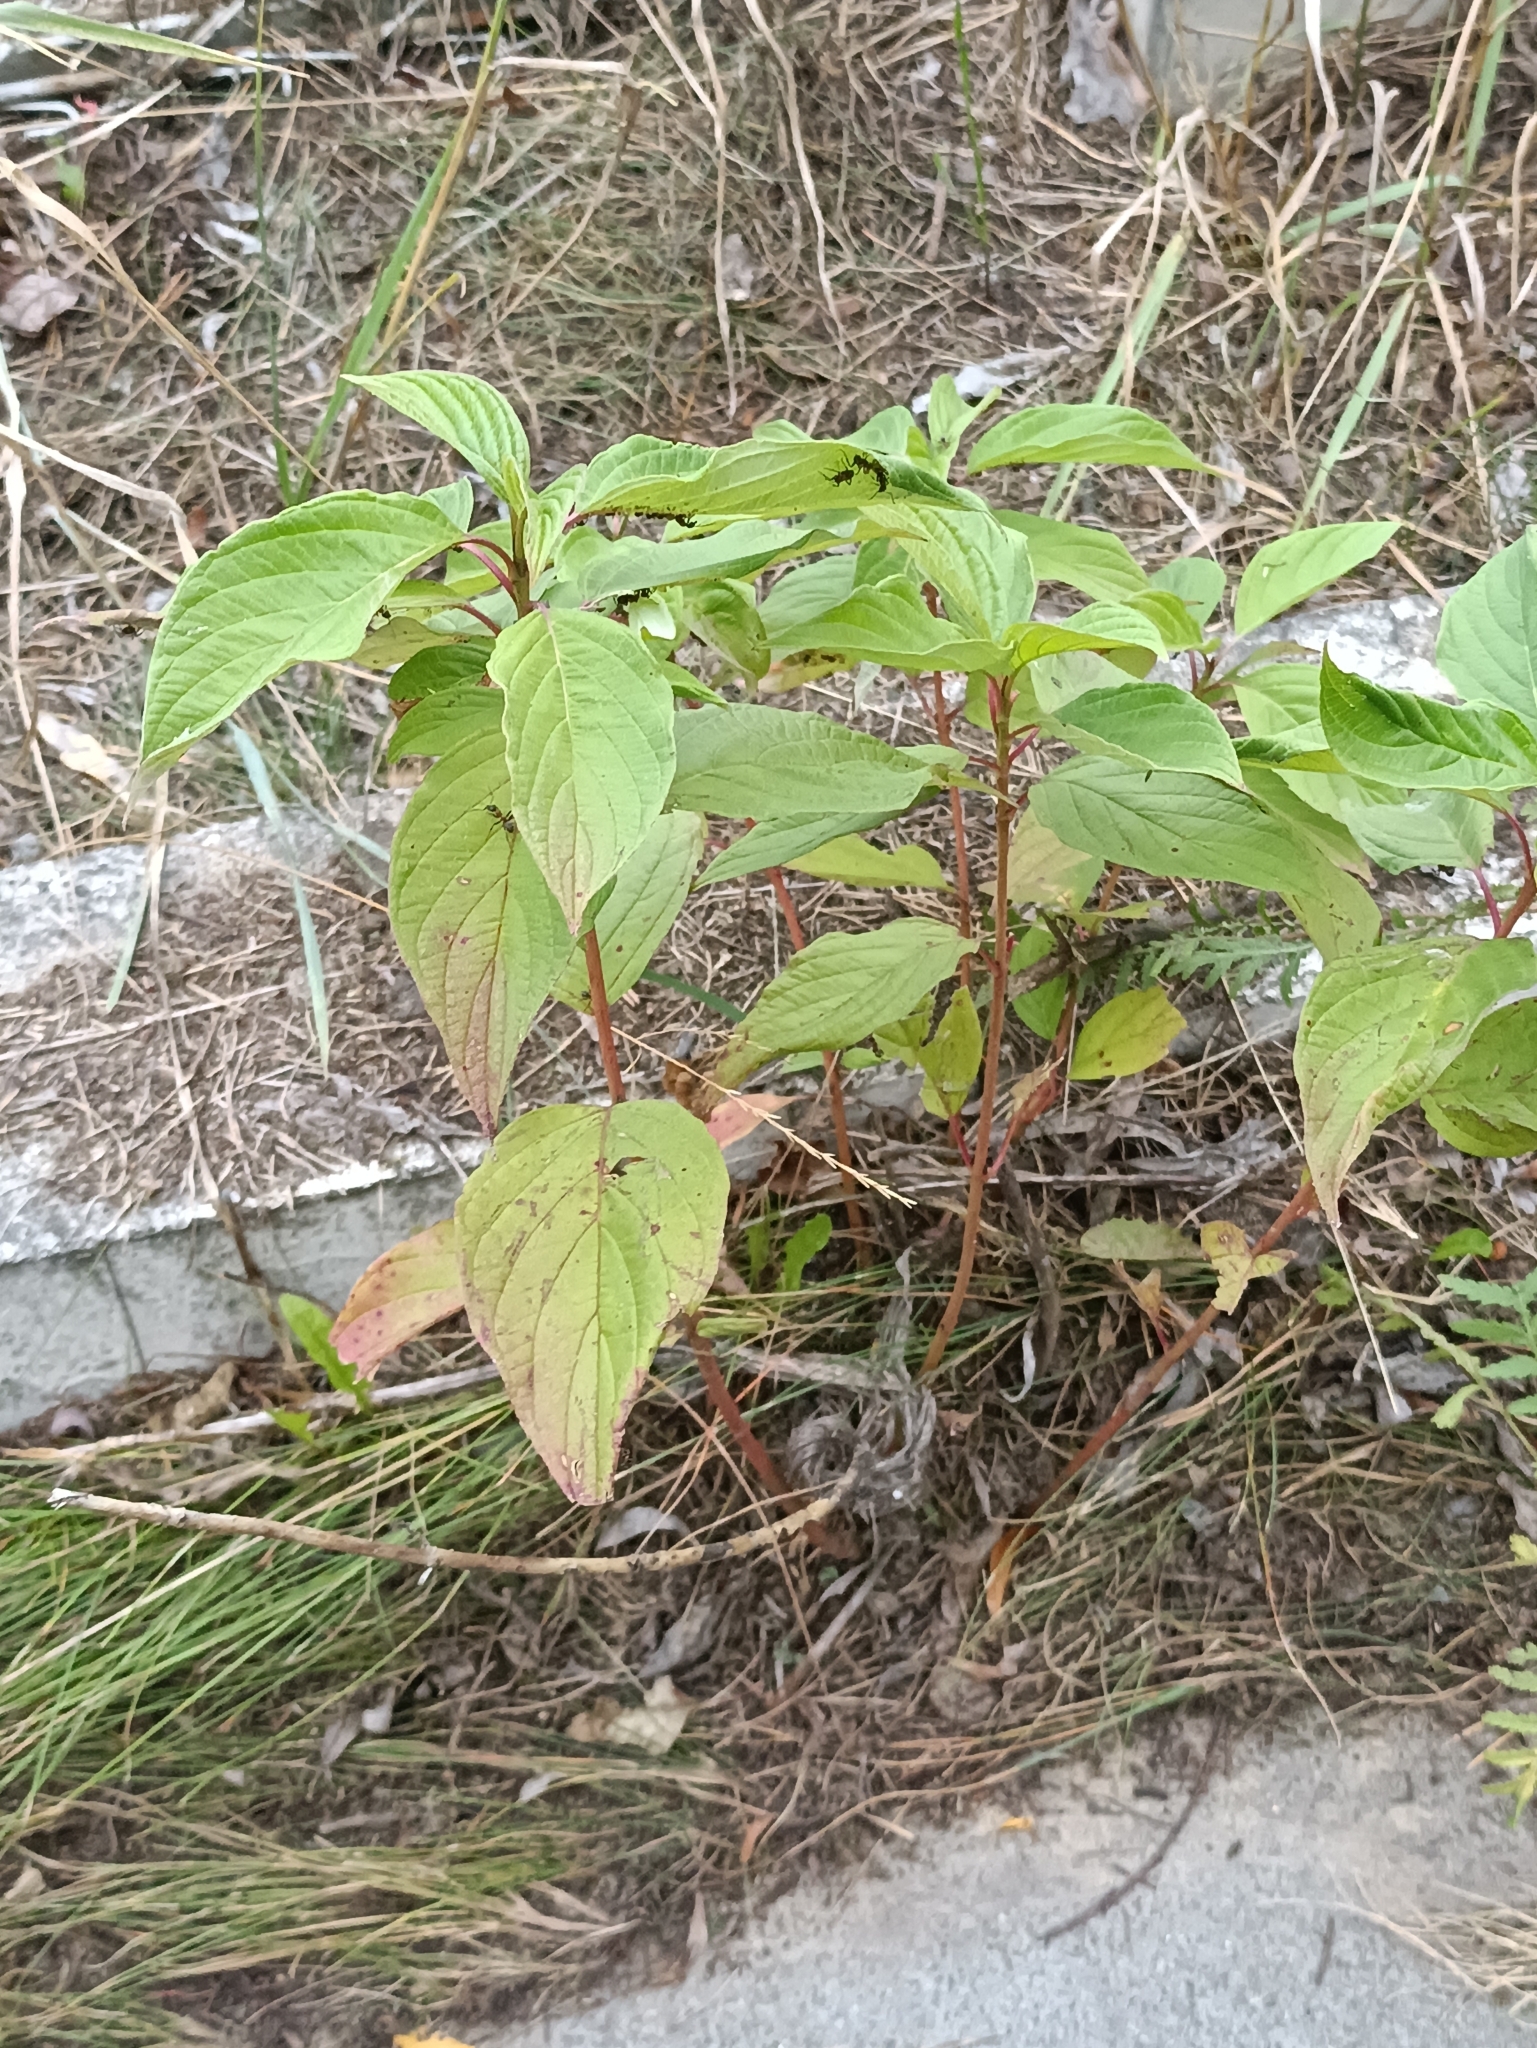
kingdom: Plantae
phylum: Tracheophyta
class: Magnoliopsida
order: Cornales
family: Cornaceae
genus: Cornus
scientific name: Cornus alba
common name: White dogwood
